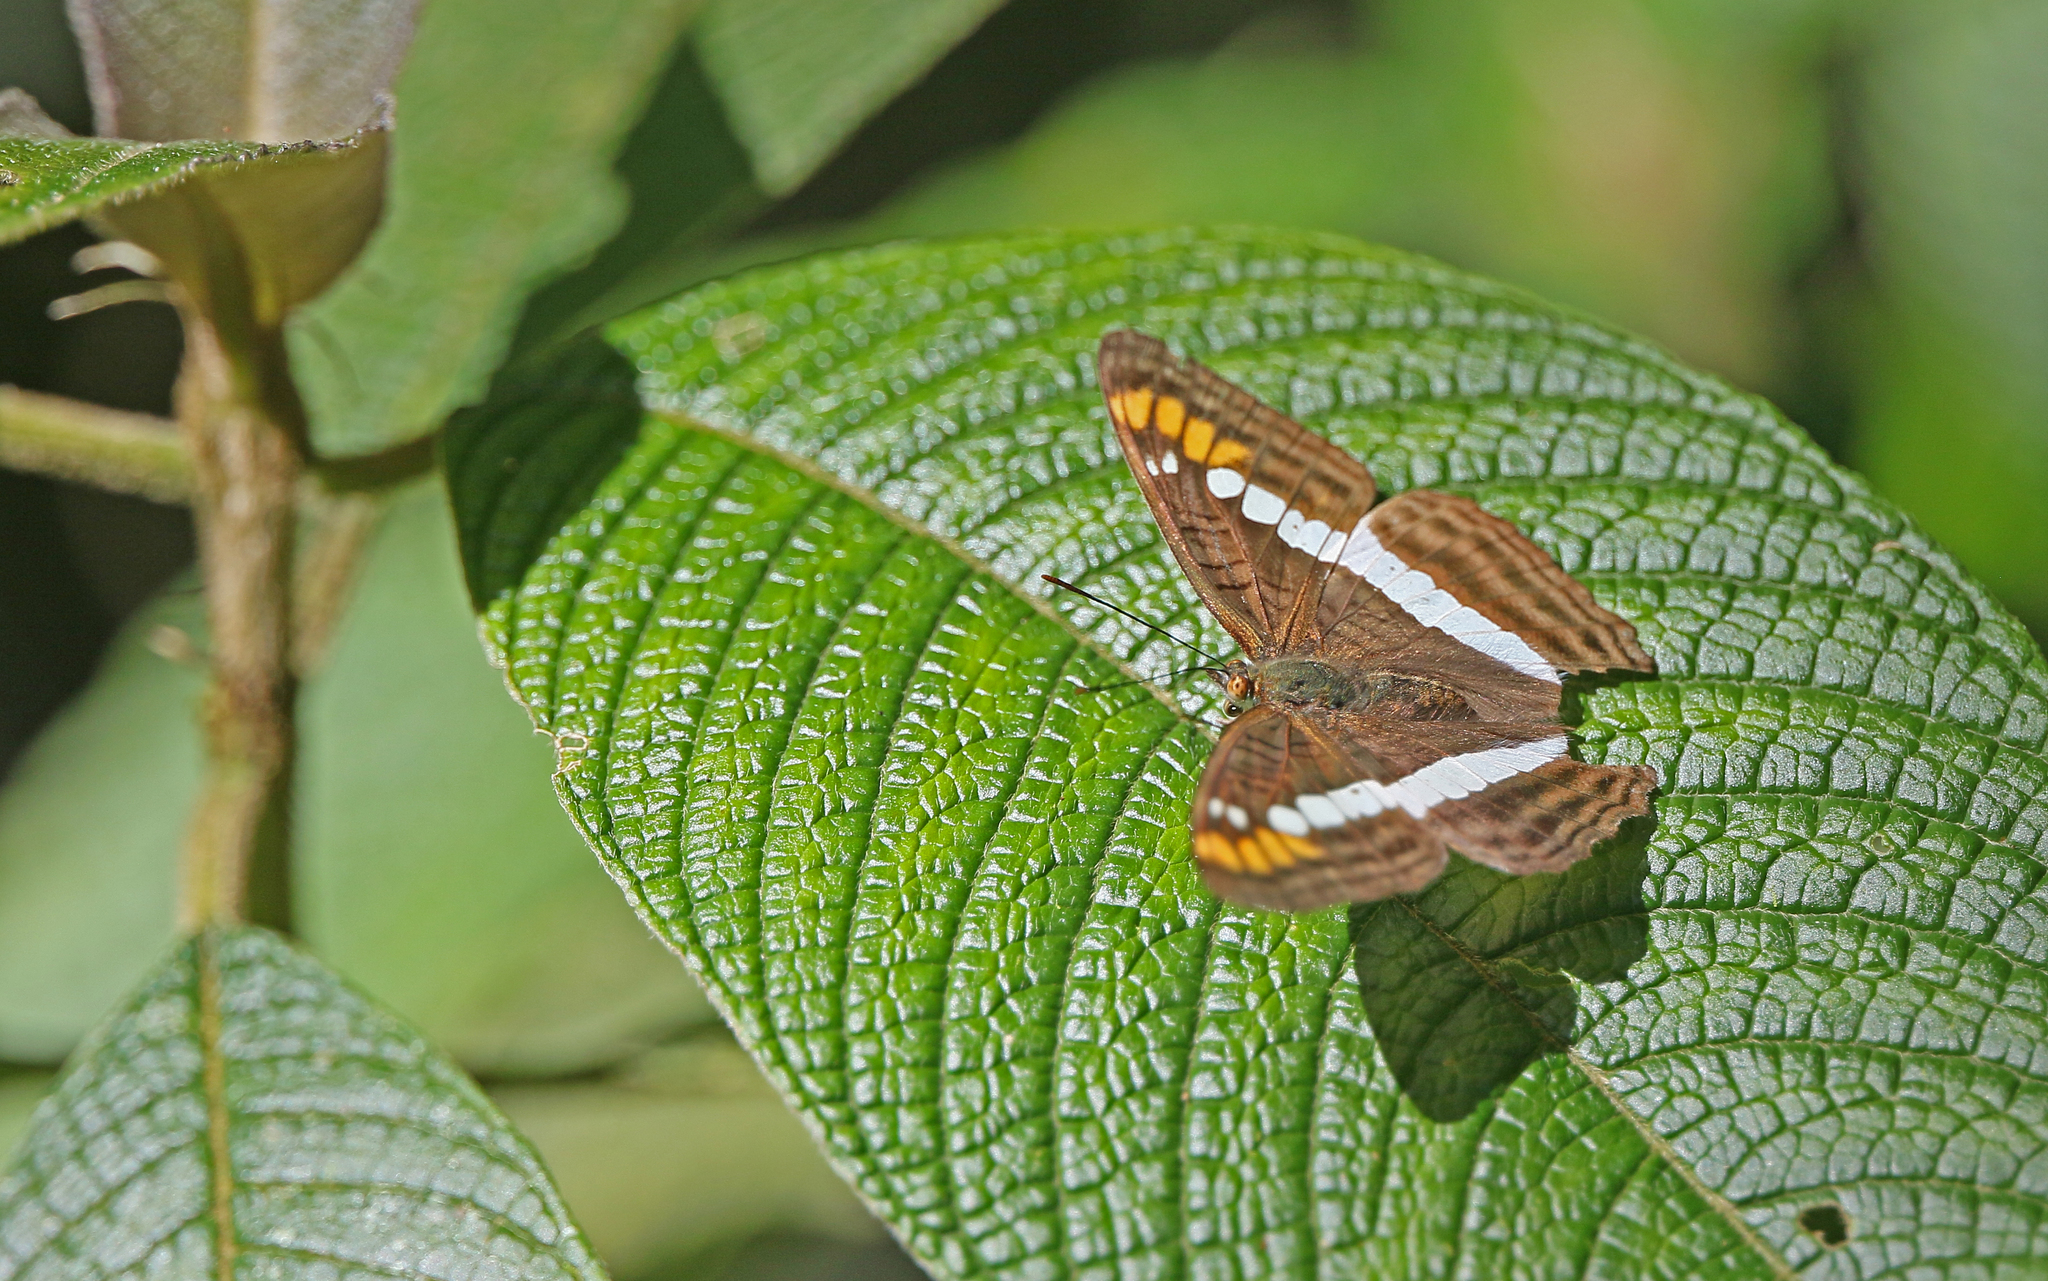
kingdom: Animalia
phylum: Arthropoda
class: Insecta
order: Lepidoptera
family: Nymphalidae
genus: Limenitis
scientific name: Limenitis alala
